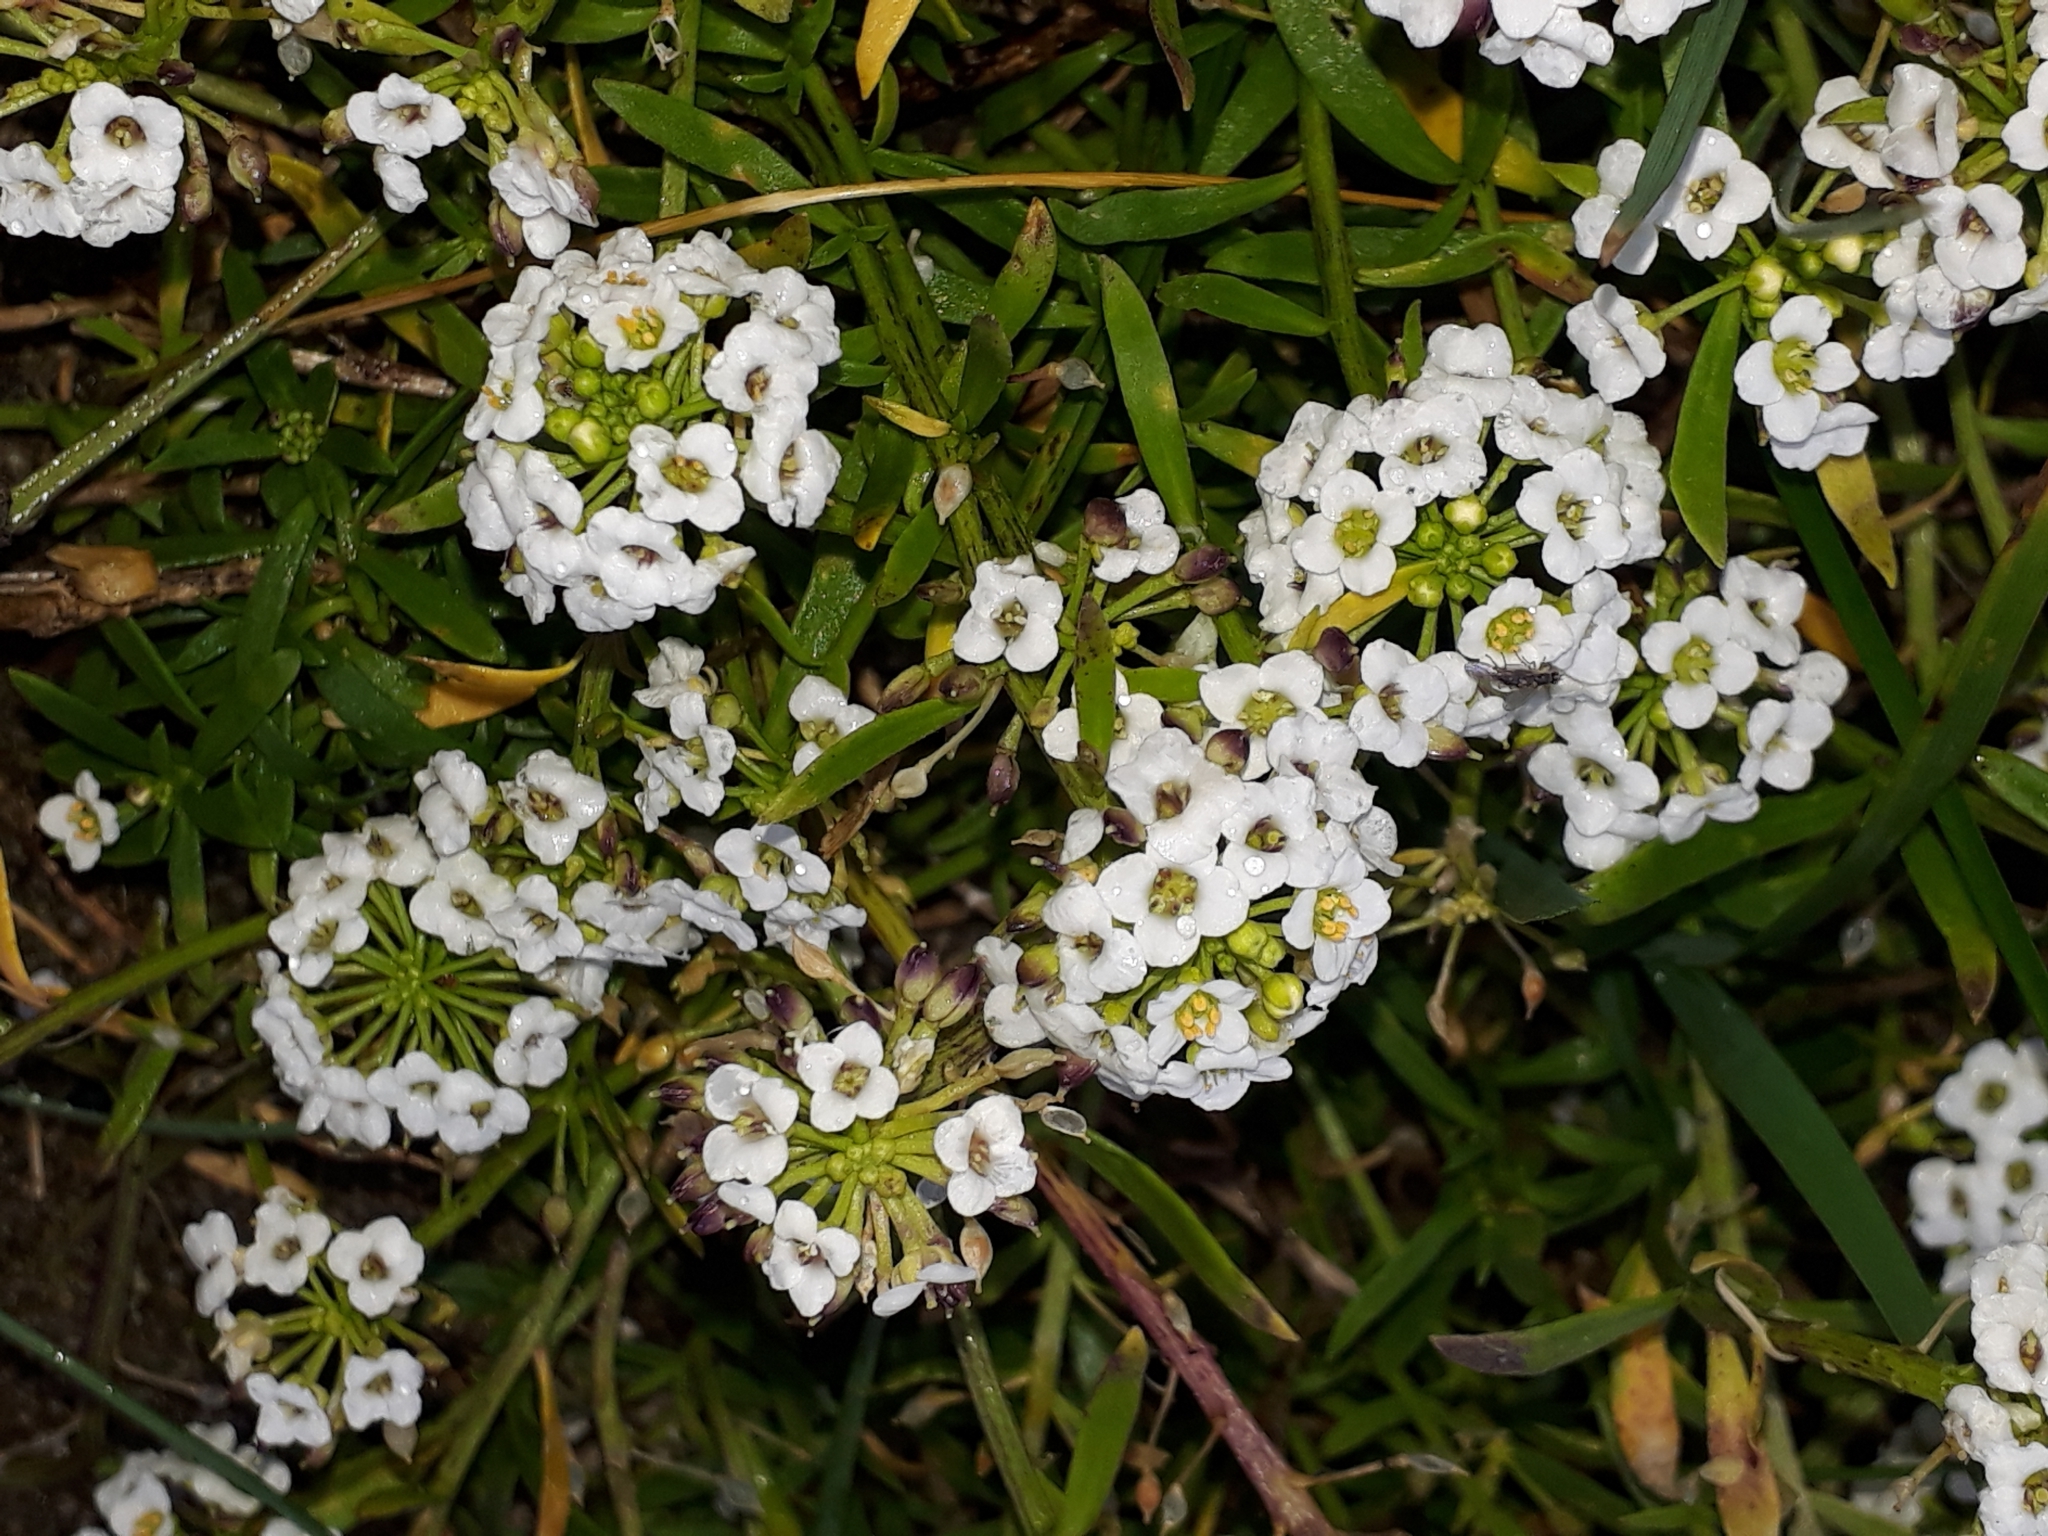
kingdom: Plantae
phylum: Tracheophyta
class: Magnoliopsida
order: Brassicales
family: Brassicaceae
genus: Lobularia
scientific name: Lobularia maritima
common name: Sweet alison
